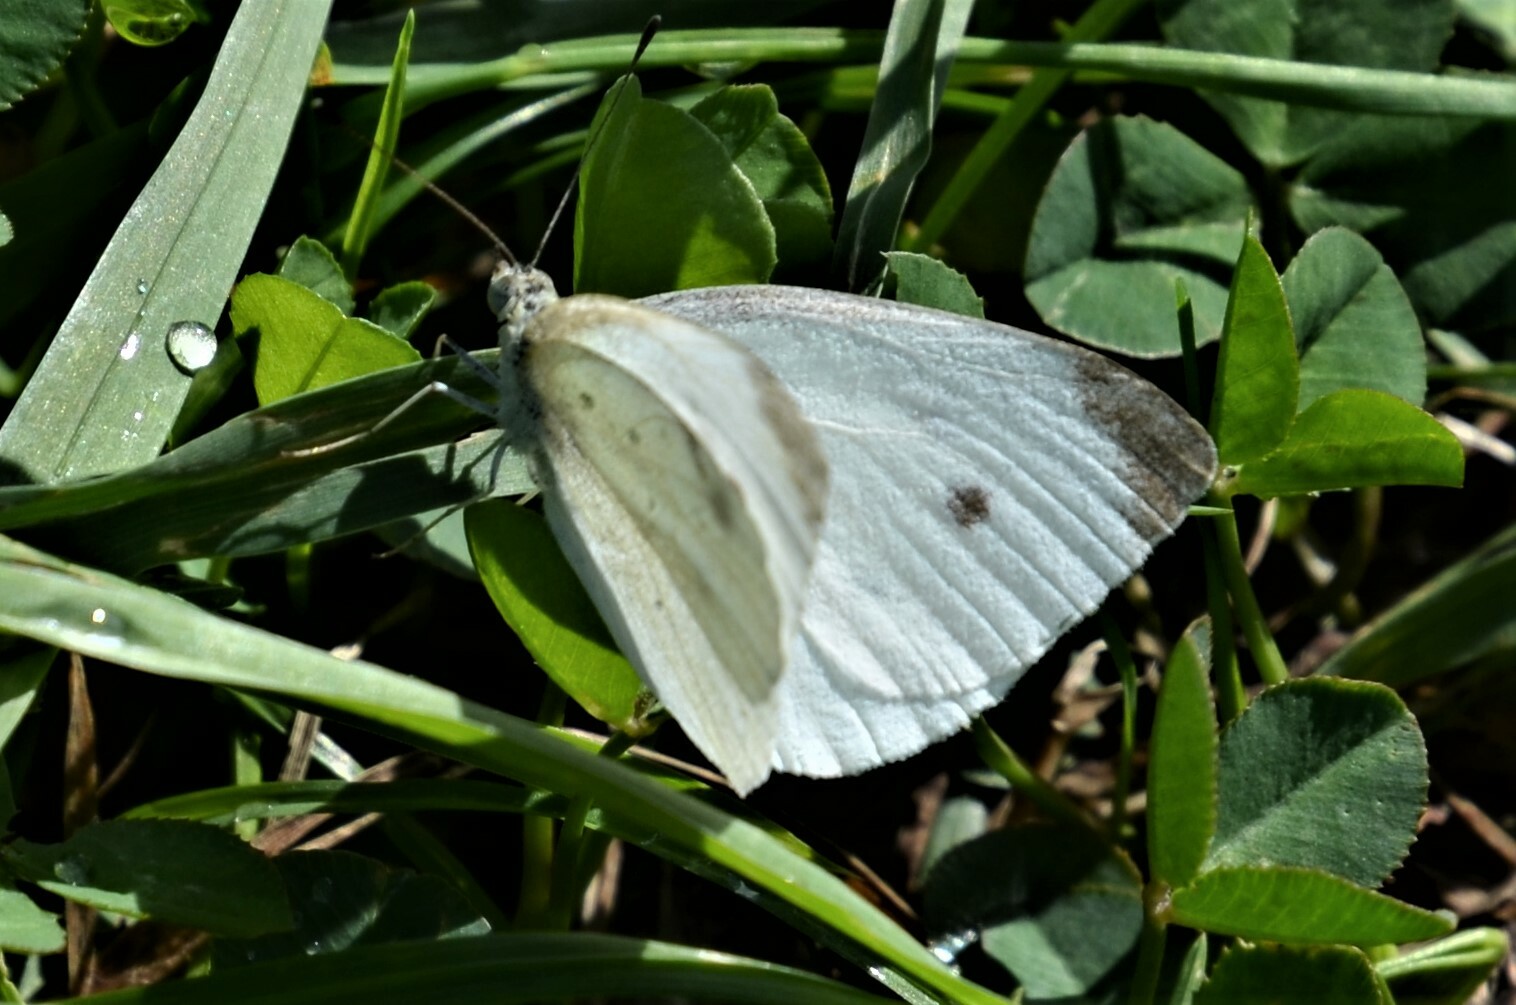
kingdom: Animalia
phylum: Arthropoda
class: Insecta
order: Lepidoptera
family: Pieridae
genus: Pieris
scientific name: Pieris rapae
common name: Small white
